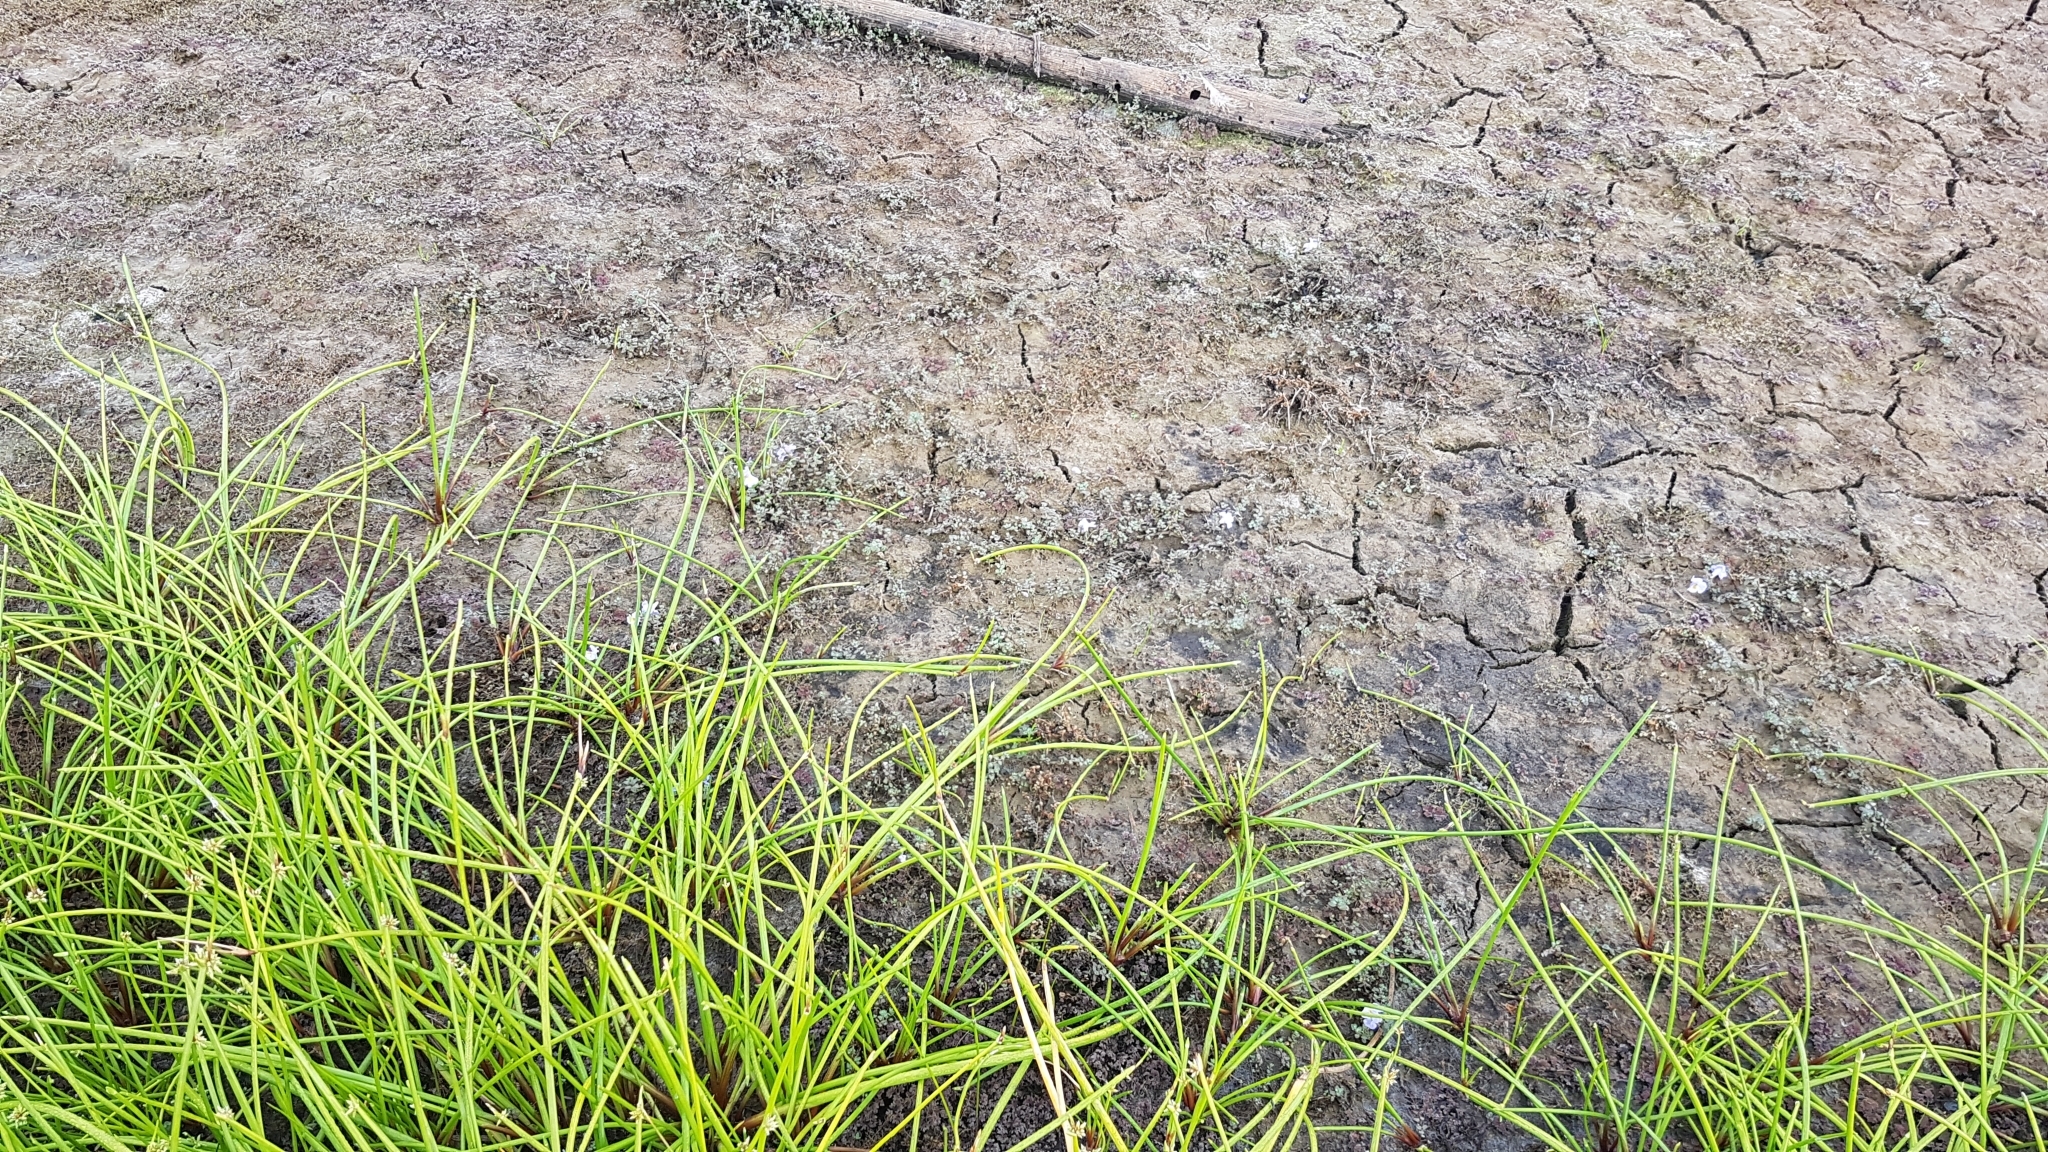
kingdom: Plantae
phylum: Tracheophyta
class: Magnoliopsida
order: Lamiales
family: Phrymaceae
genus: Thyridia
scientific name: Thyridia repens
